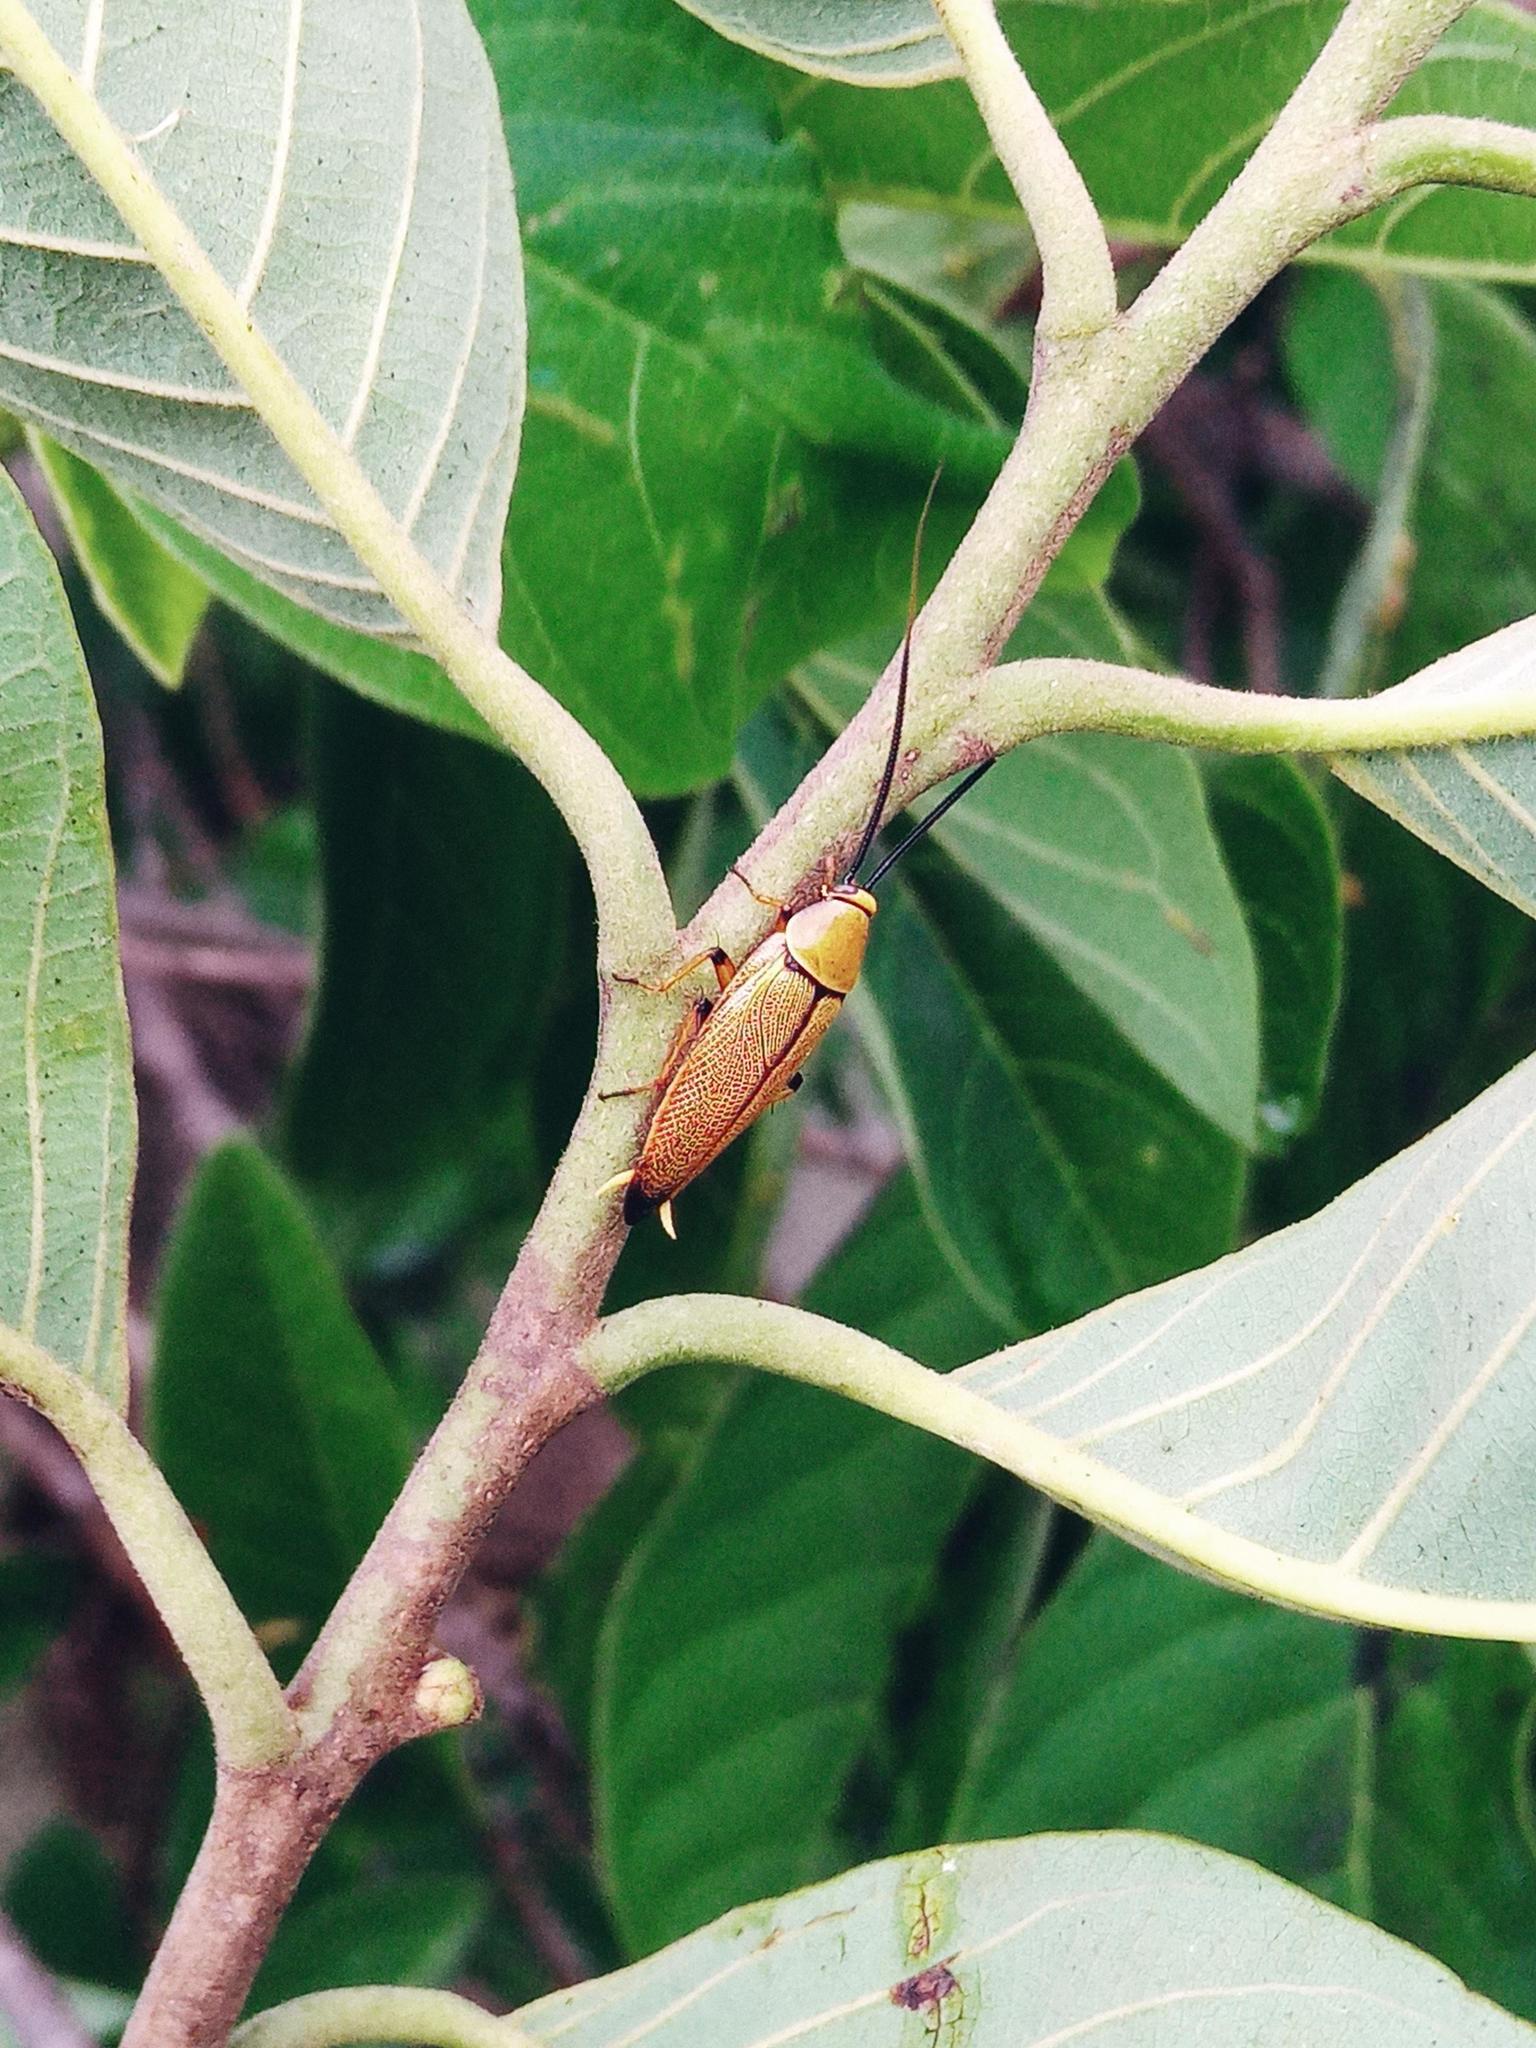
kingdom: Animalia
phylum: Arthropoda
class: Insecta
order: Blattodea
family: Ectobiidae
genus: Ellipsidion
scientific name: Ellipsidion humerale
